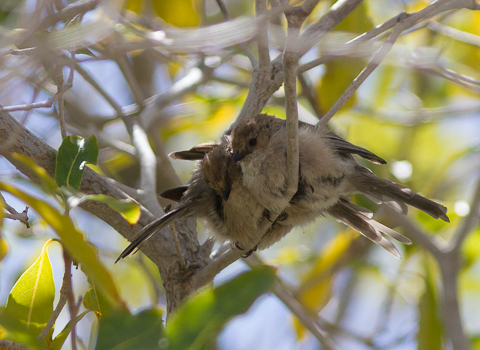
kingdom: Animalia
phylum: Chordata
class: Aves
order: Passeriformes
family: Aegithalidae
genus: Psaltriparus
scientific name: Psaltriparus minimus
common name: American bushtit
